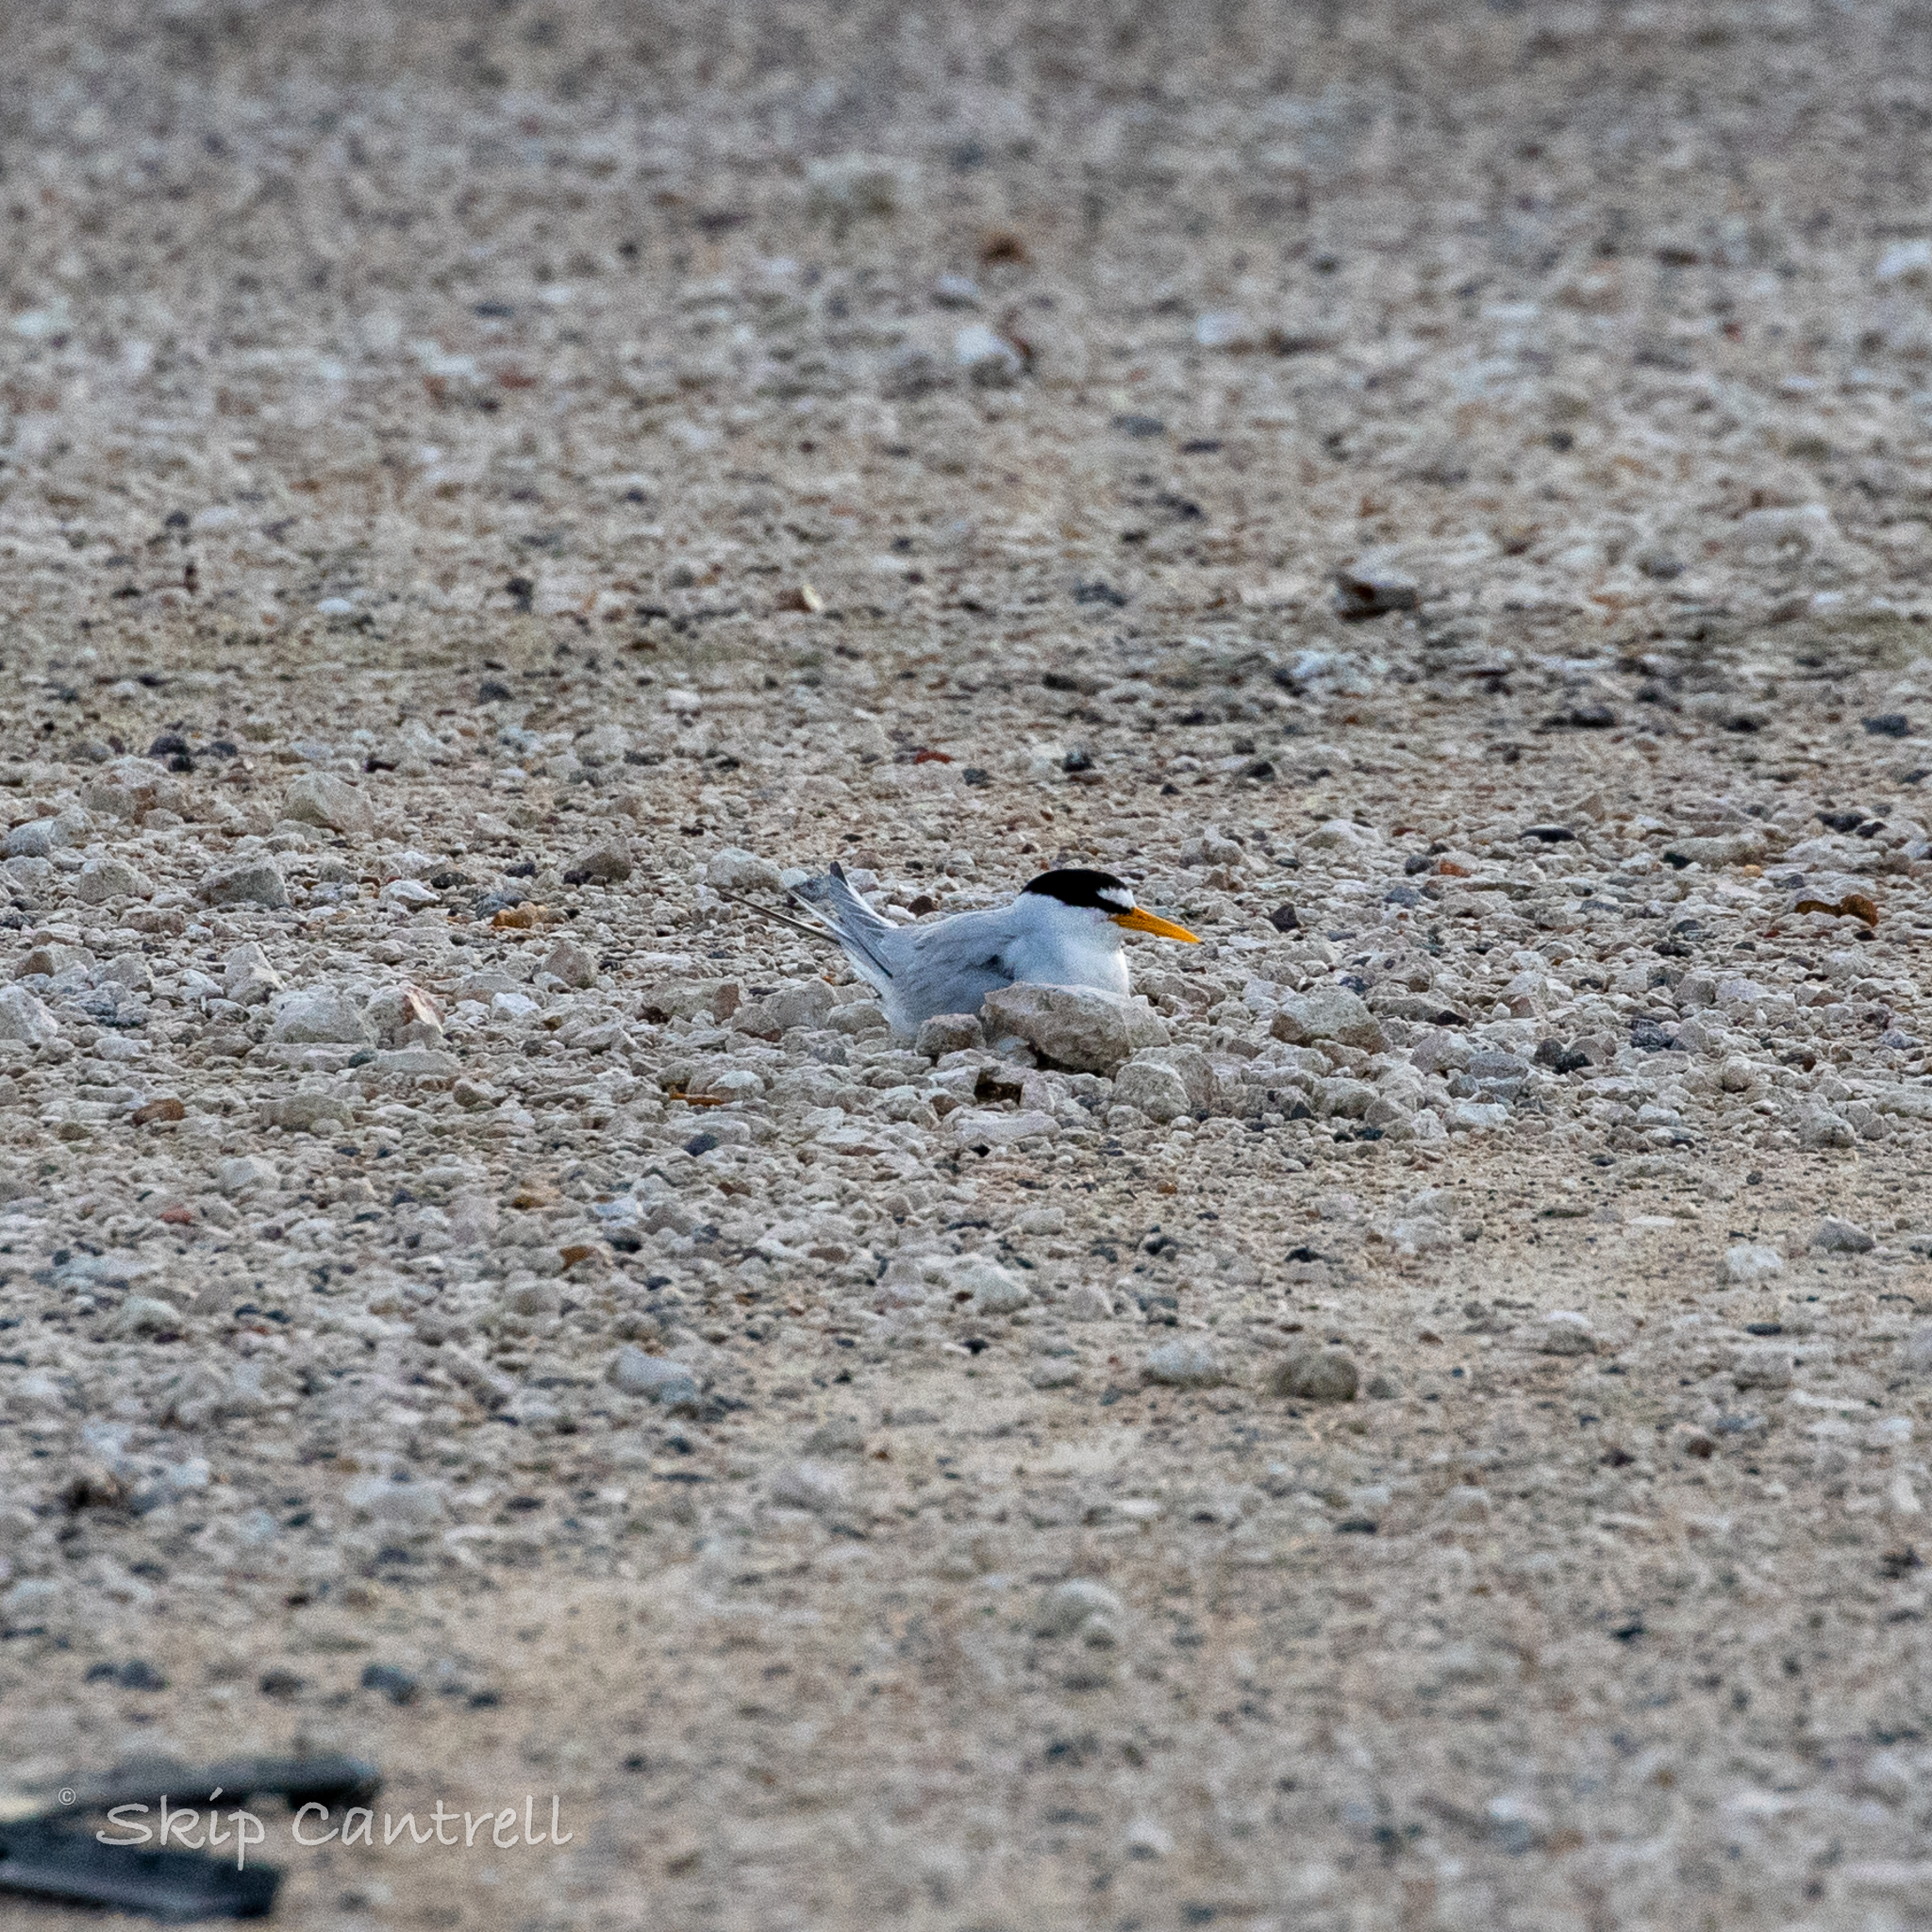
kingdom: Animalia
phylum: Chordata
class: Aves
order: Charadriiformes
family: Laridae
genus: Sternula
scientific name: Sternula antillarum
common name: Least tern
